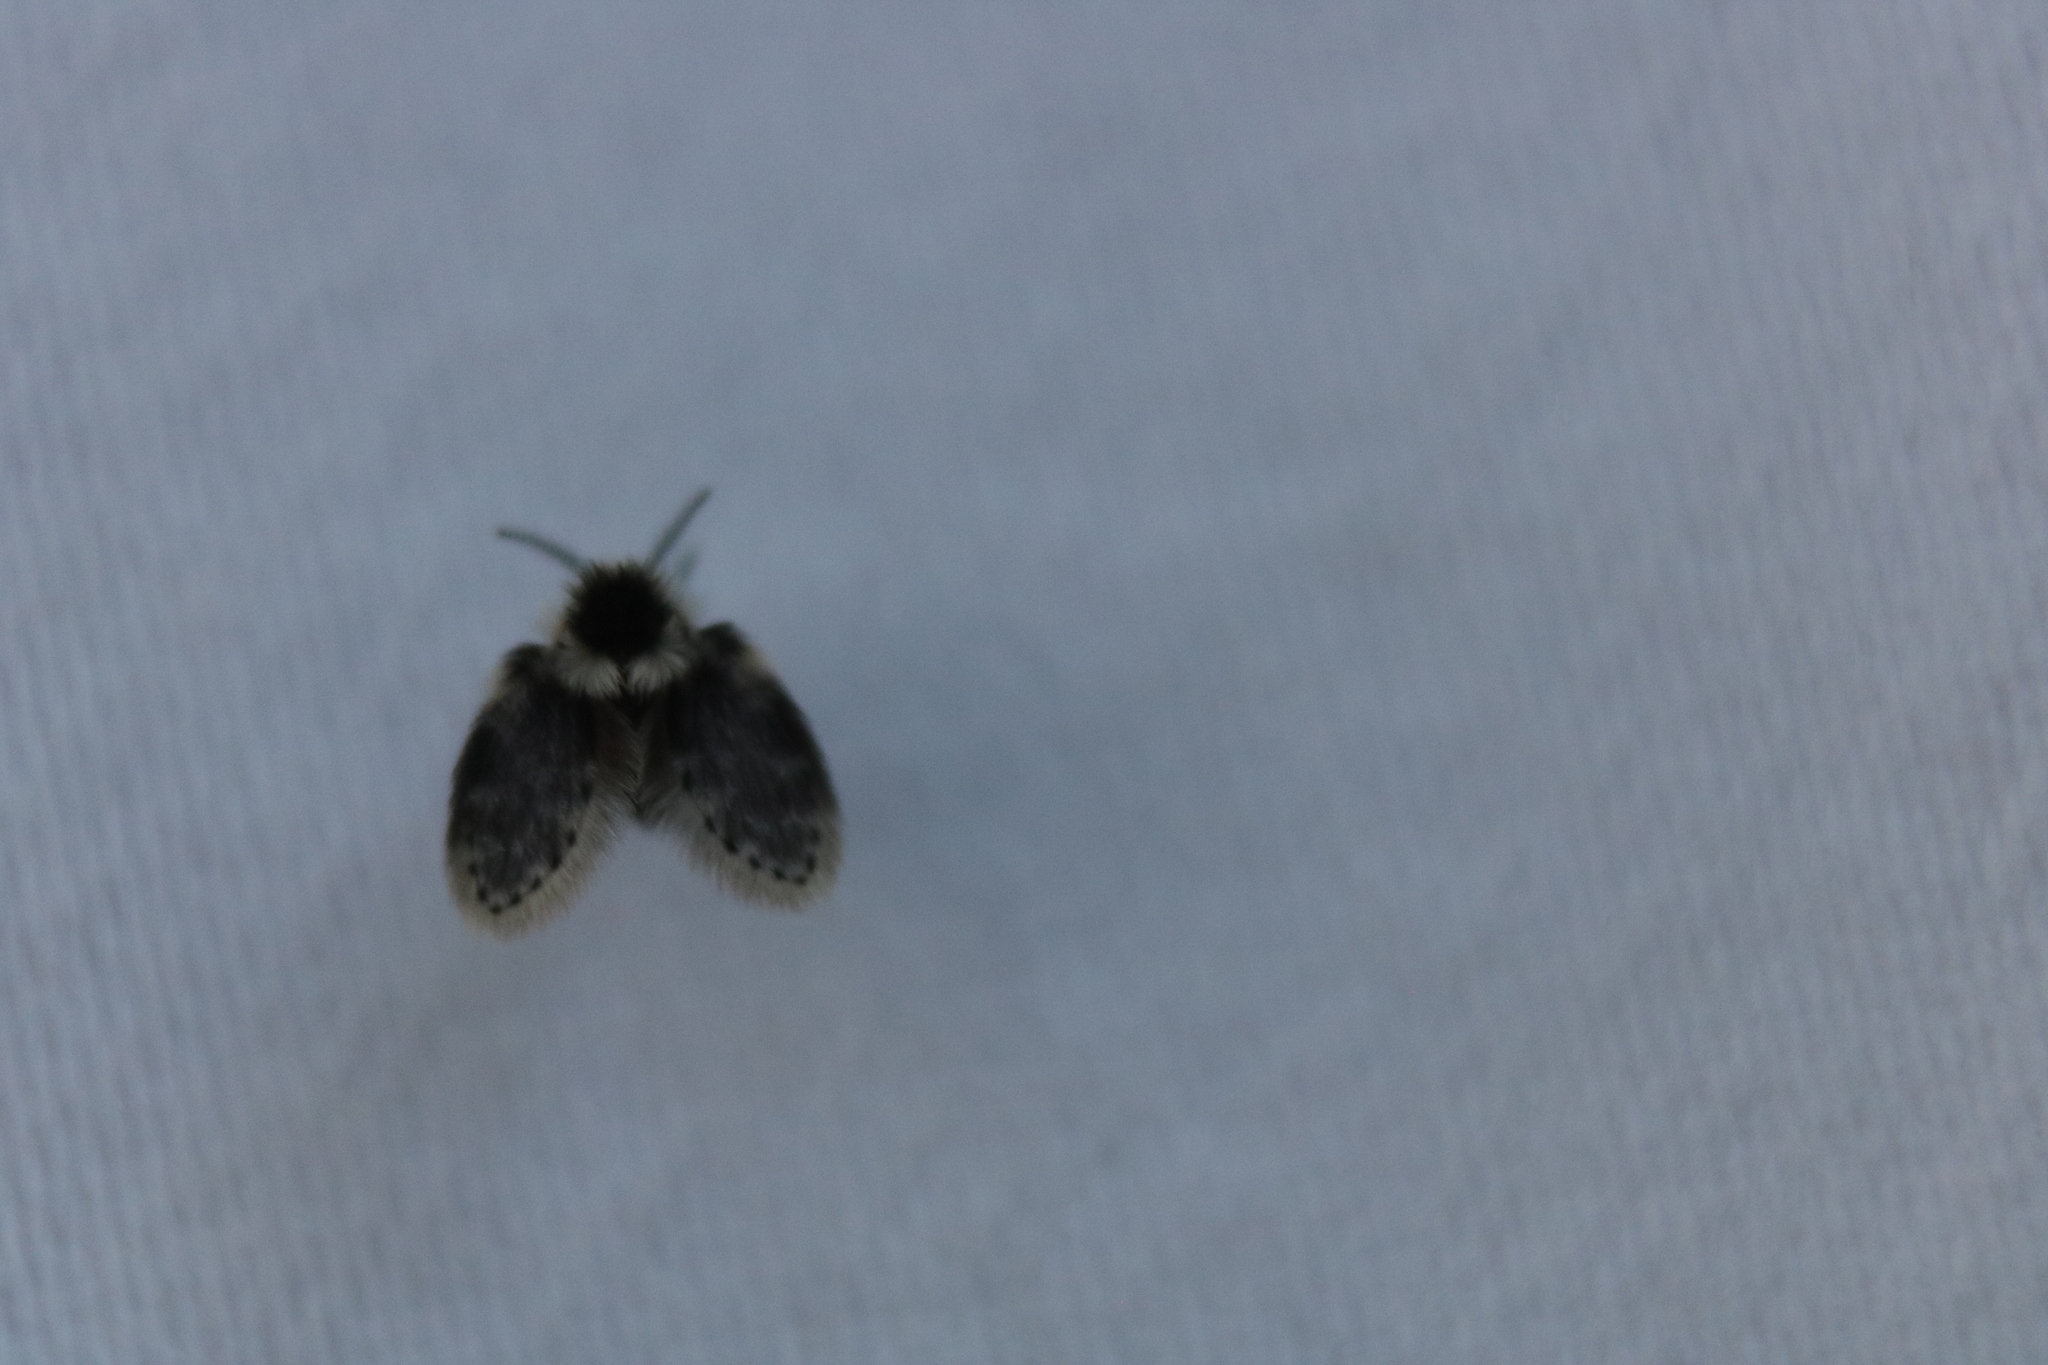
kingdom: Animalia
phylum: Arthropoda
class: Insecta
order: Diptera
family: Psychodidae
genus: Lepiseodina
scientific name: Lepiseodina
